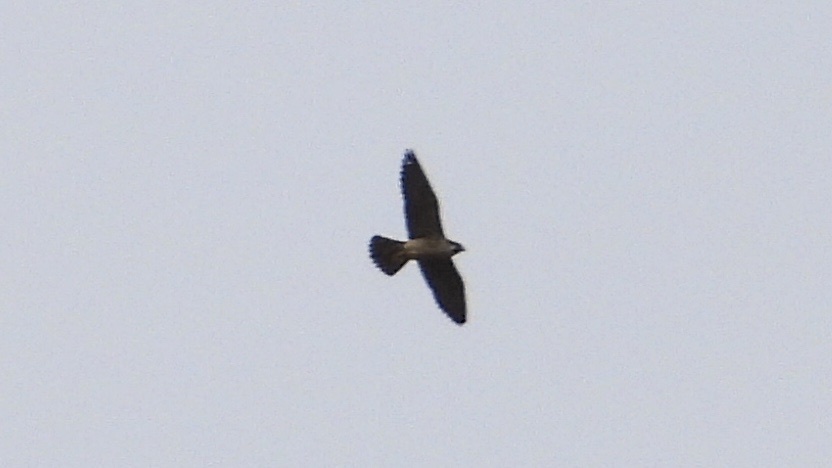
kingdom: Animalia
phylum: Chordata
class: Aves
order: Falconiformes
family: Falconidae
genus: Falco
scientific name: Falco peregrinus
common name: Peregrine falcon
